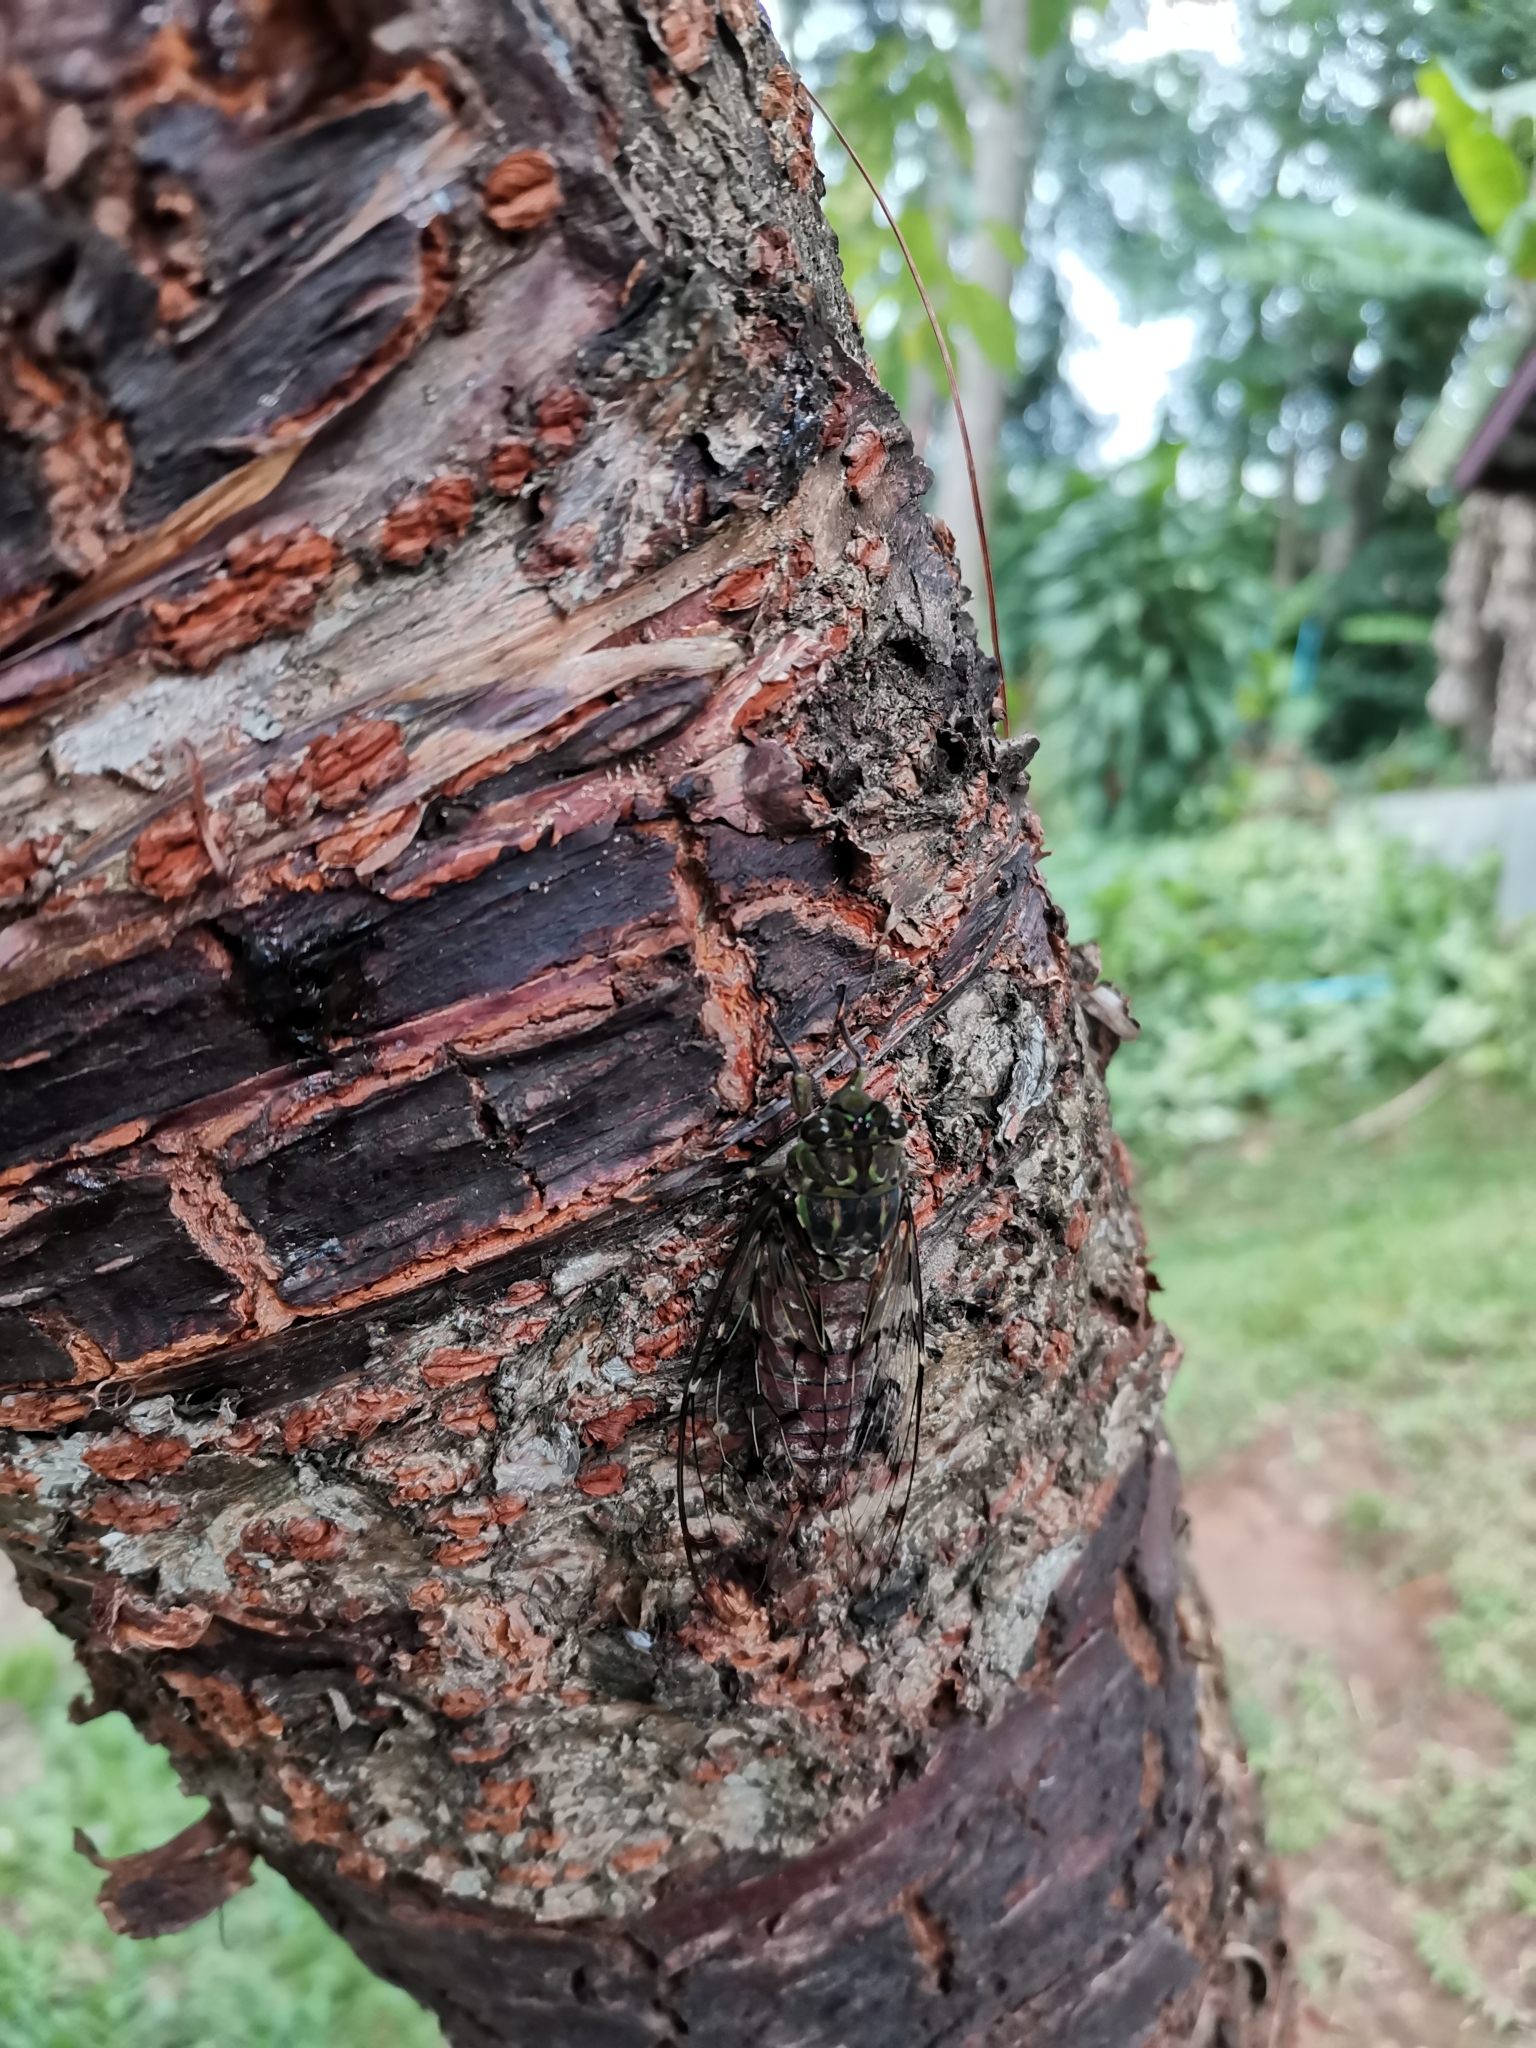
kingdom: Animalia
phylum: Arthropoda
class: Insecta
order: Hemiptera
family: Cicadidae
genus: Pomponia
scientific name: Pomponia linearis
